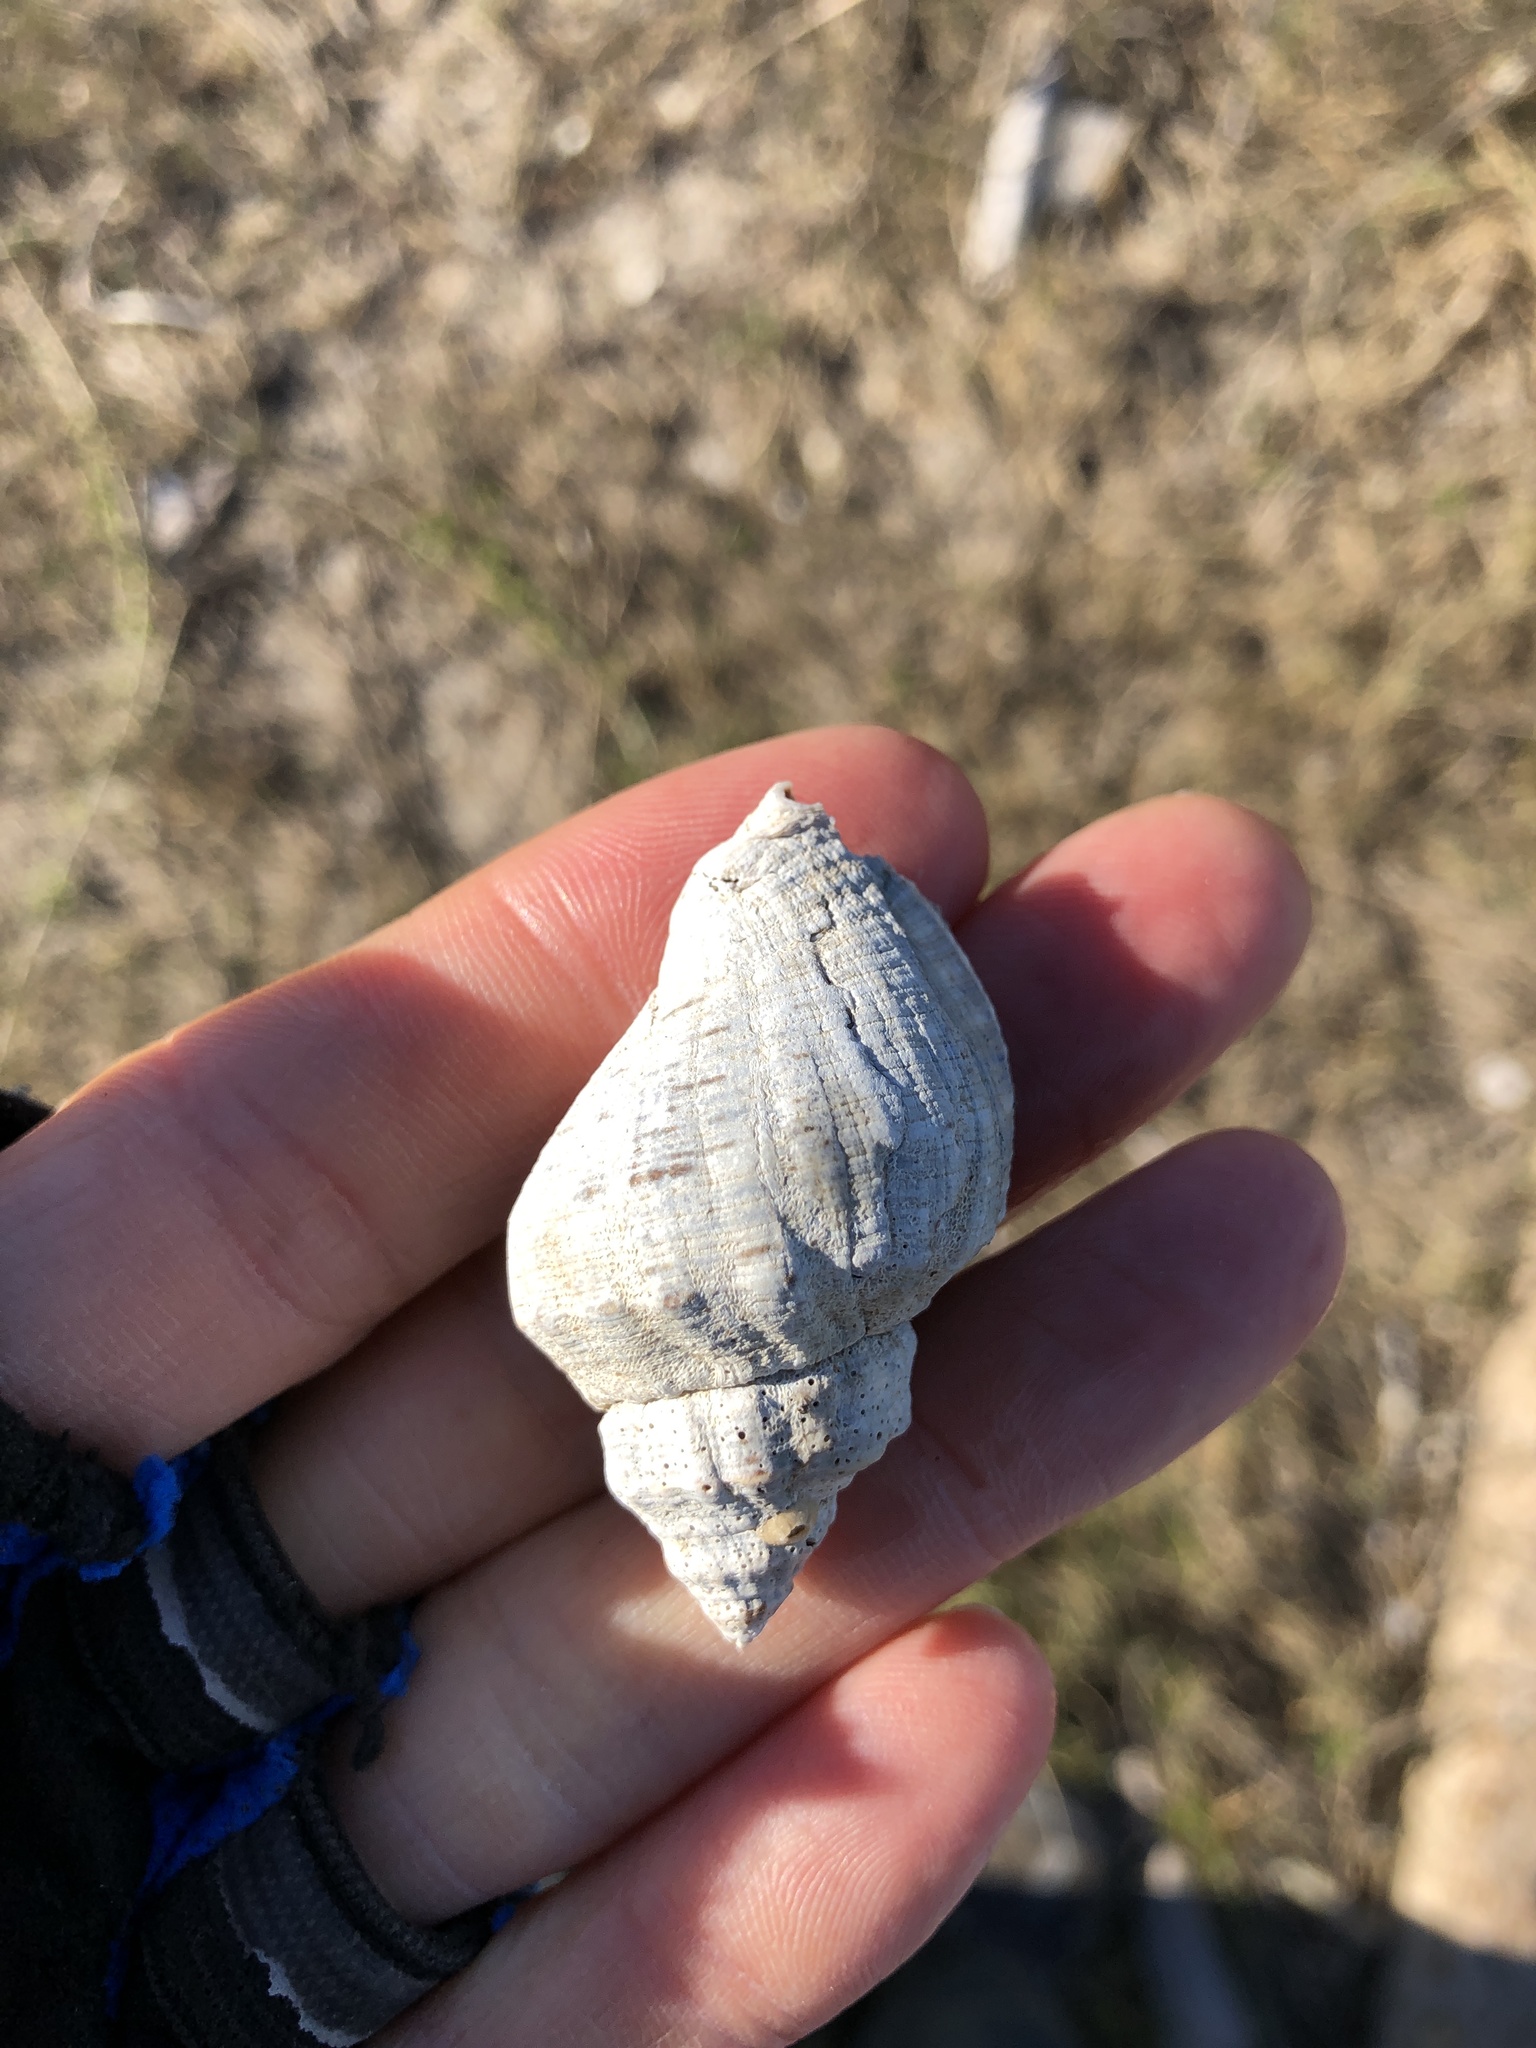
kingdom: Animalia
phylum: Mollusca
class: Gastropoda
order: Neogastropoda
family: Muricidae
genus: Stramonita
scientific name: Stramonita canaliculata
